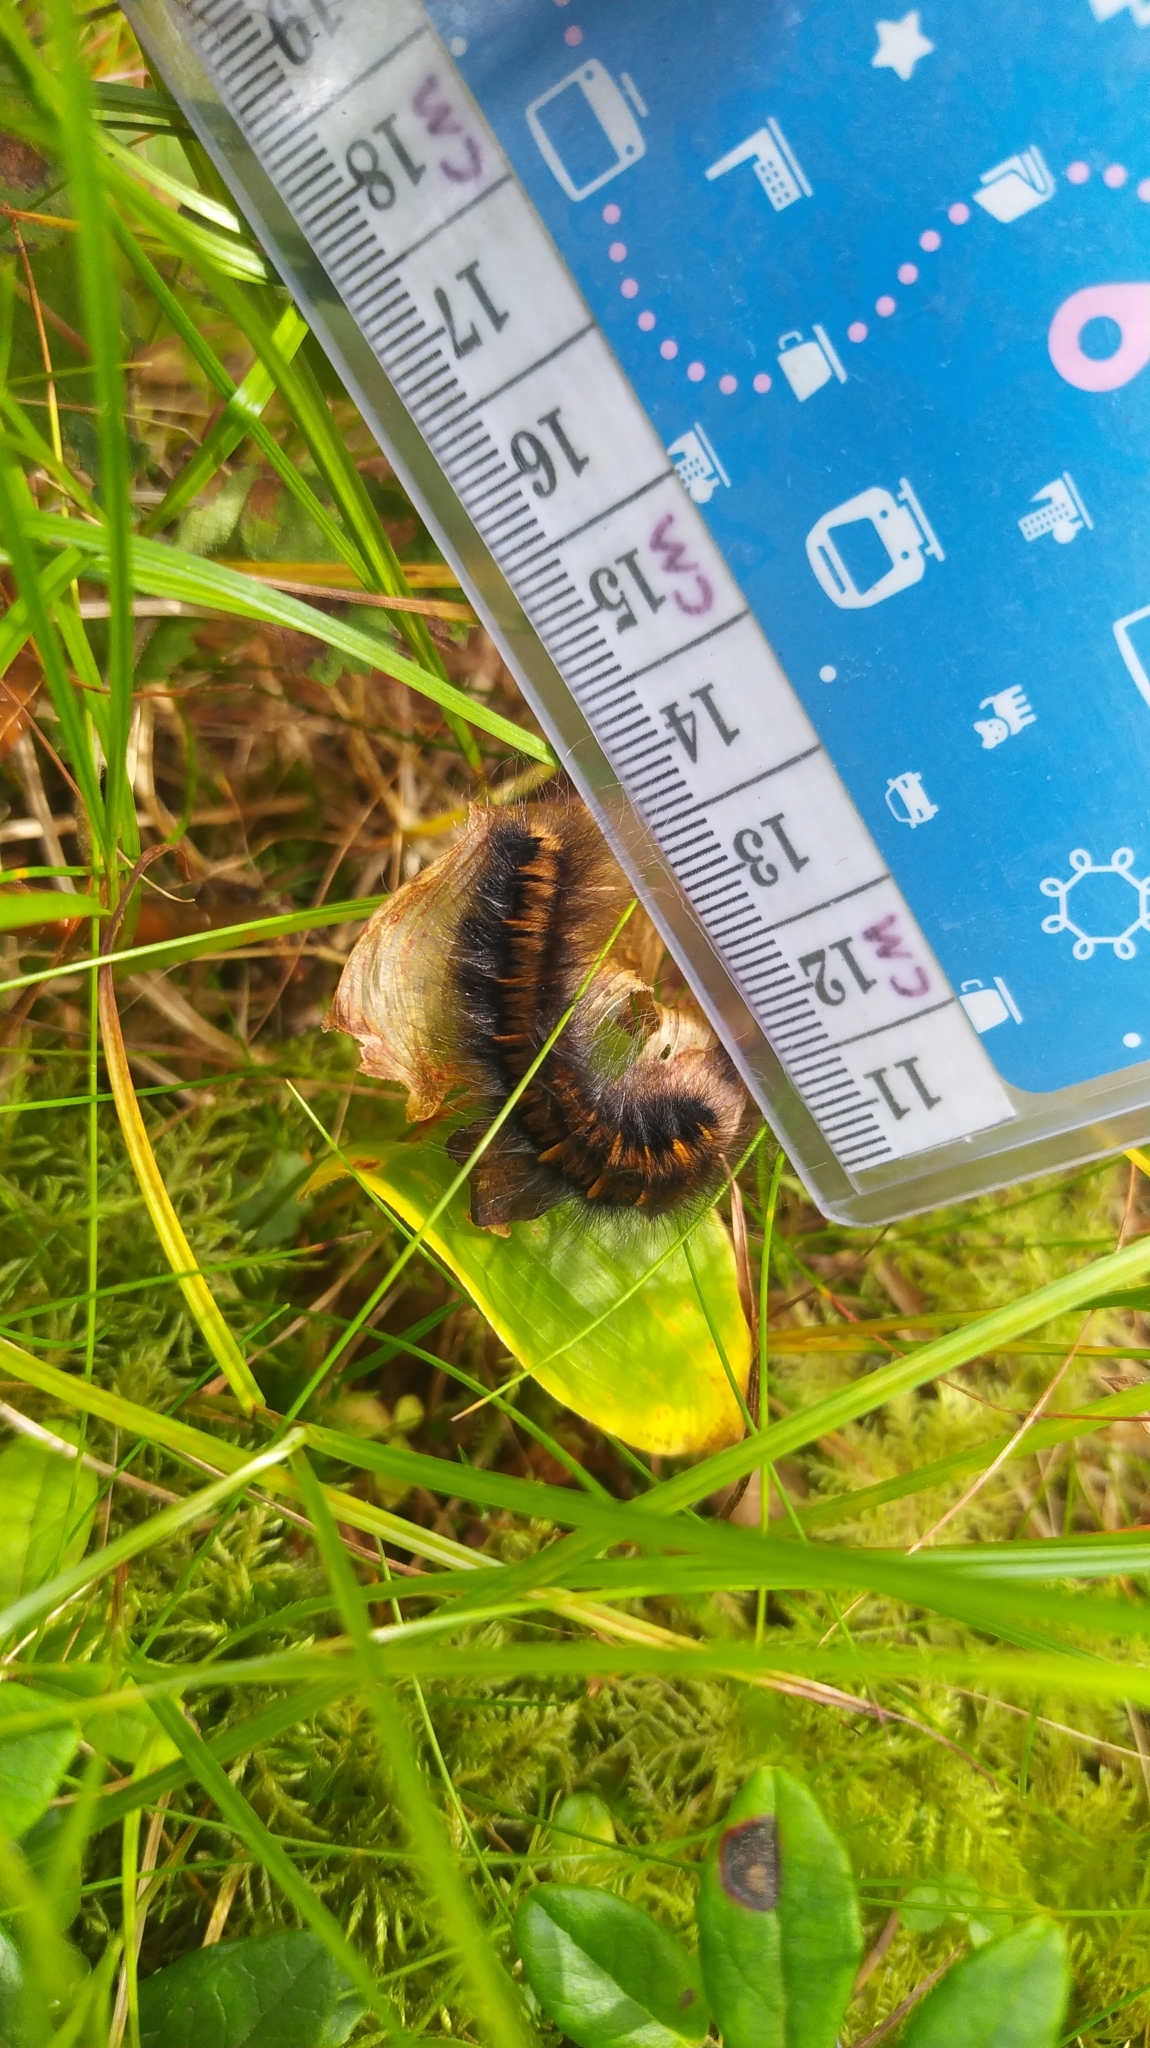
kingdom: Animalia
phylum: Arthropoda
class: Insecta
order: Lepidoptera
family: Lasiocampidae
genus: Macrothylacia
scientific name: Macrothylacia rubi
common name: Fox moth
